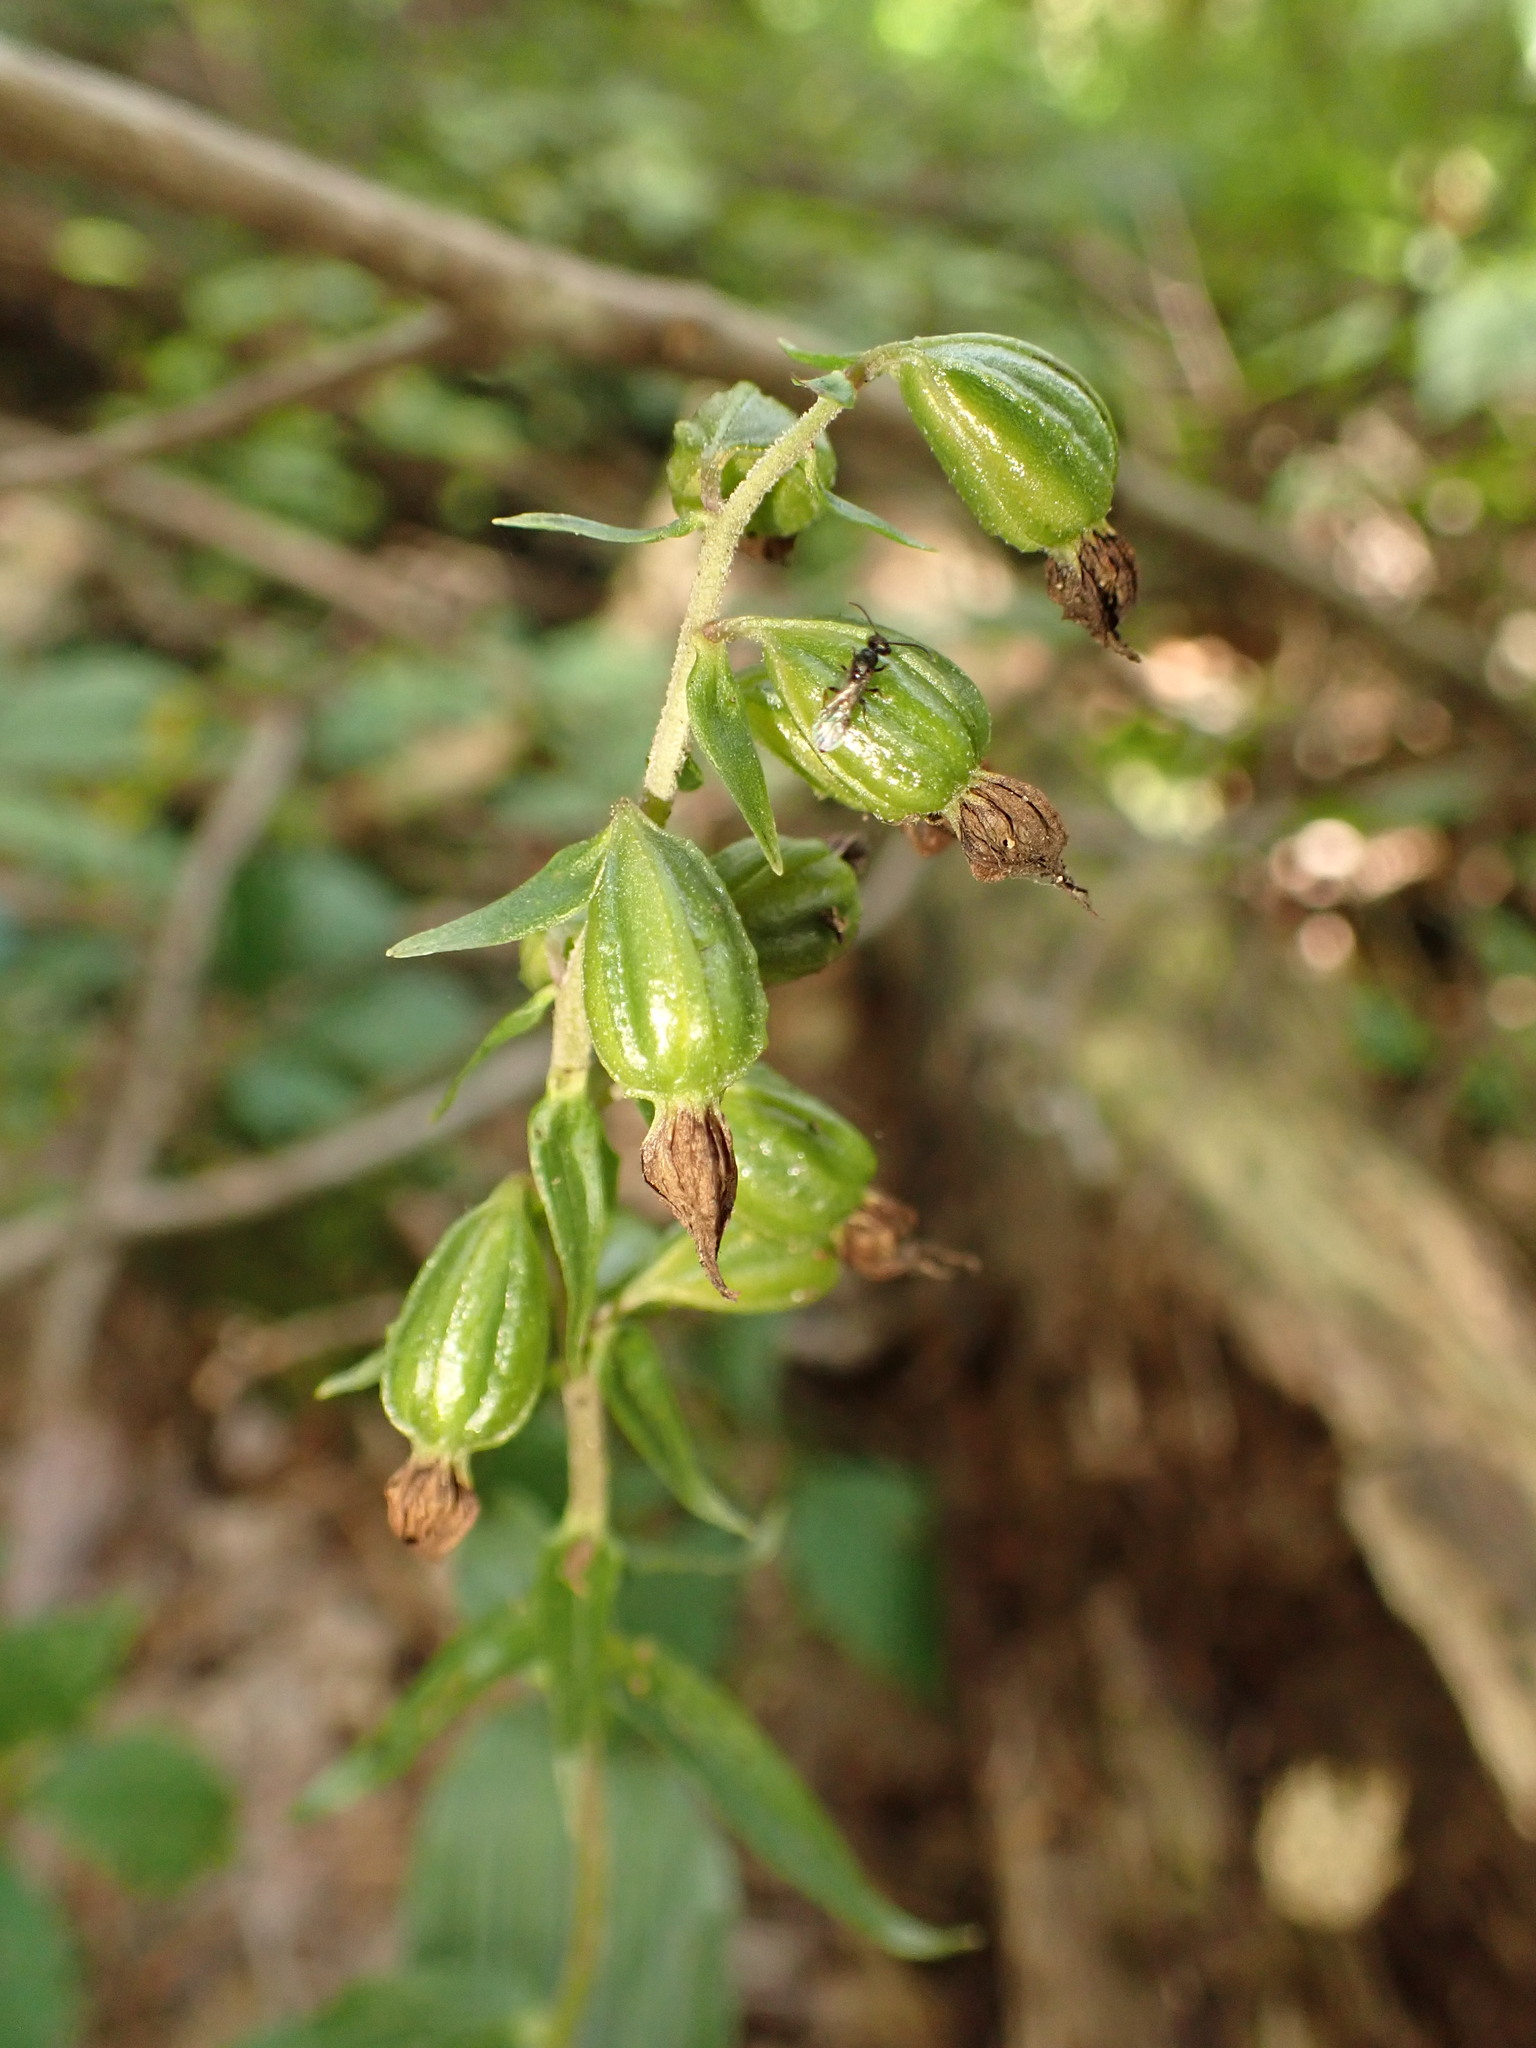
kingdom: Plantae
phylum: Tracheophyta
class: Liliopsida
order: Asparagales
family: Orchidaceae
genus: Epipactis
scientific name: Epipactis helleborine
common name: Broad-leaved helleborine
